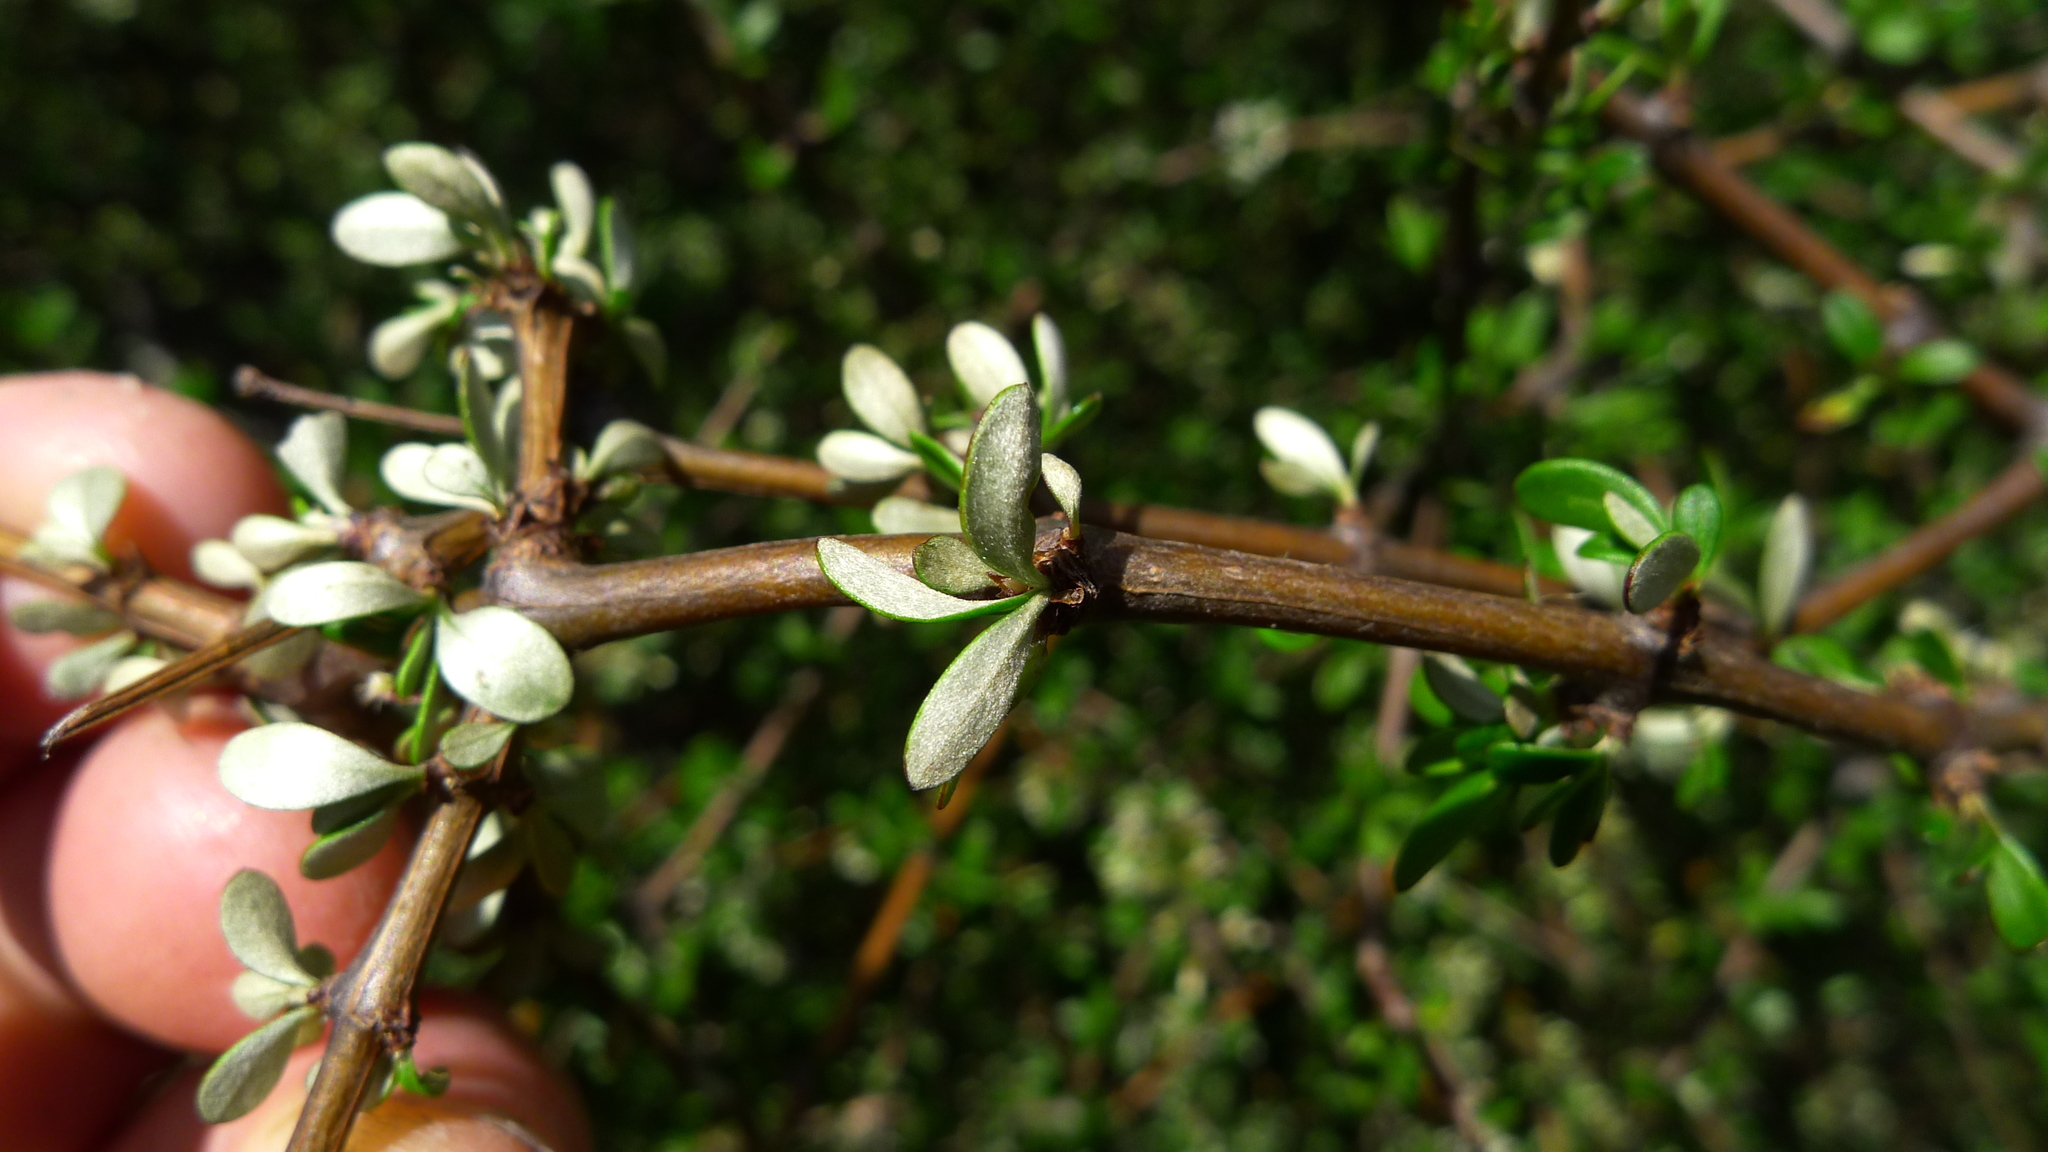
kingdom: Plantae
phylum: Tracheophyta
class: Magnoliopsida
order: Asterales
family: Asteraceae
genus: Olearia
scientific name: Olearia virgata
